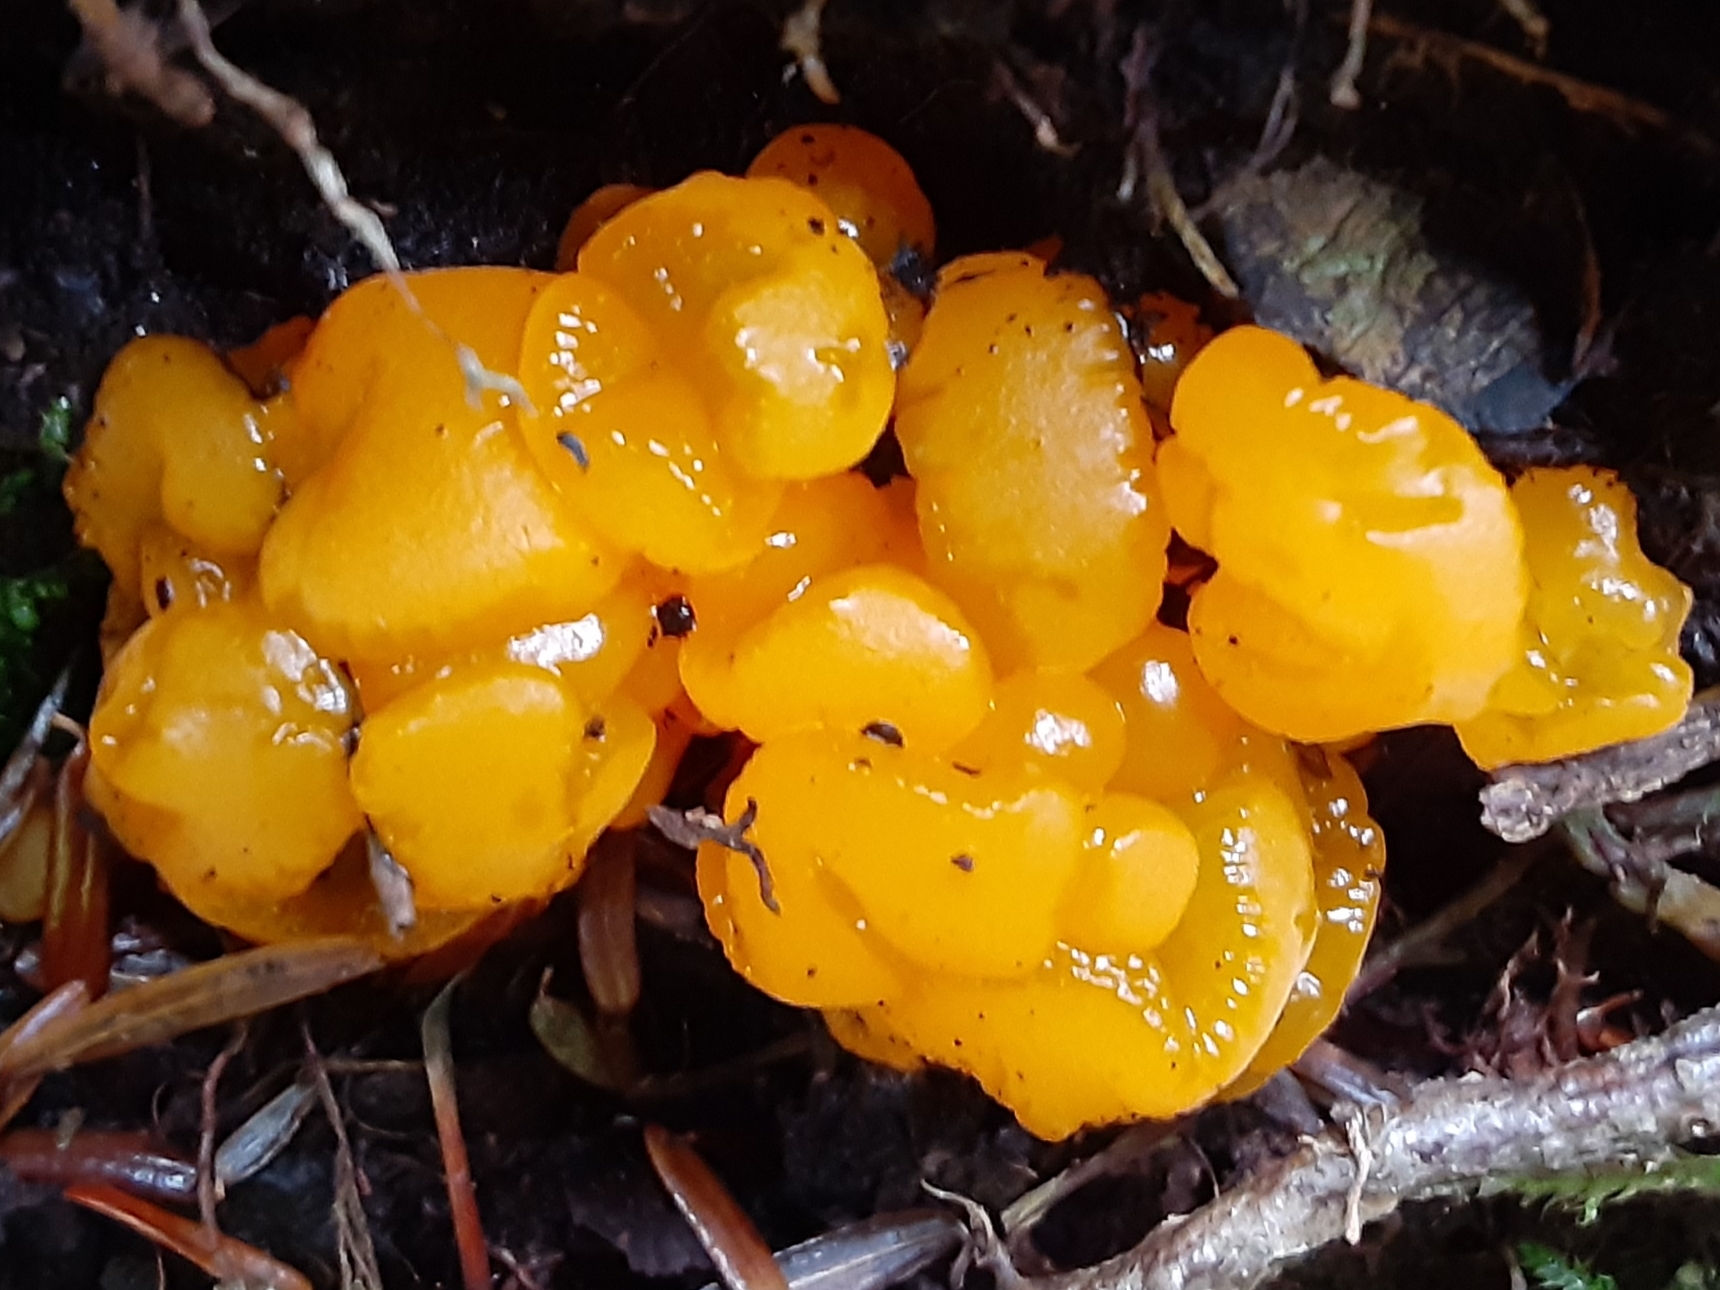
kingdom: Fungi
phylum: Basidiomycota
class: Dacrymycetes
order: Dacrymycetales
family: Dacrymycetaceae
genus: Dacrymyces
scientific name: Dacrymyces chrysospermus
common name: Orange jelly spot
